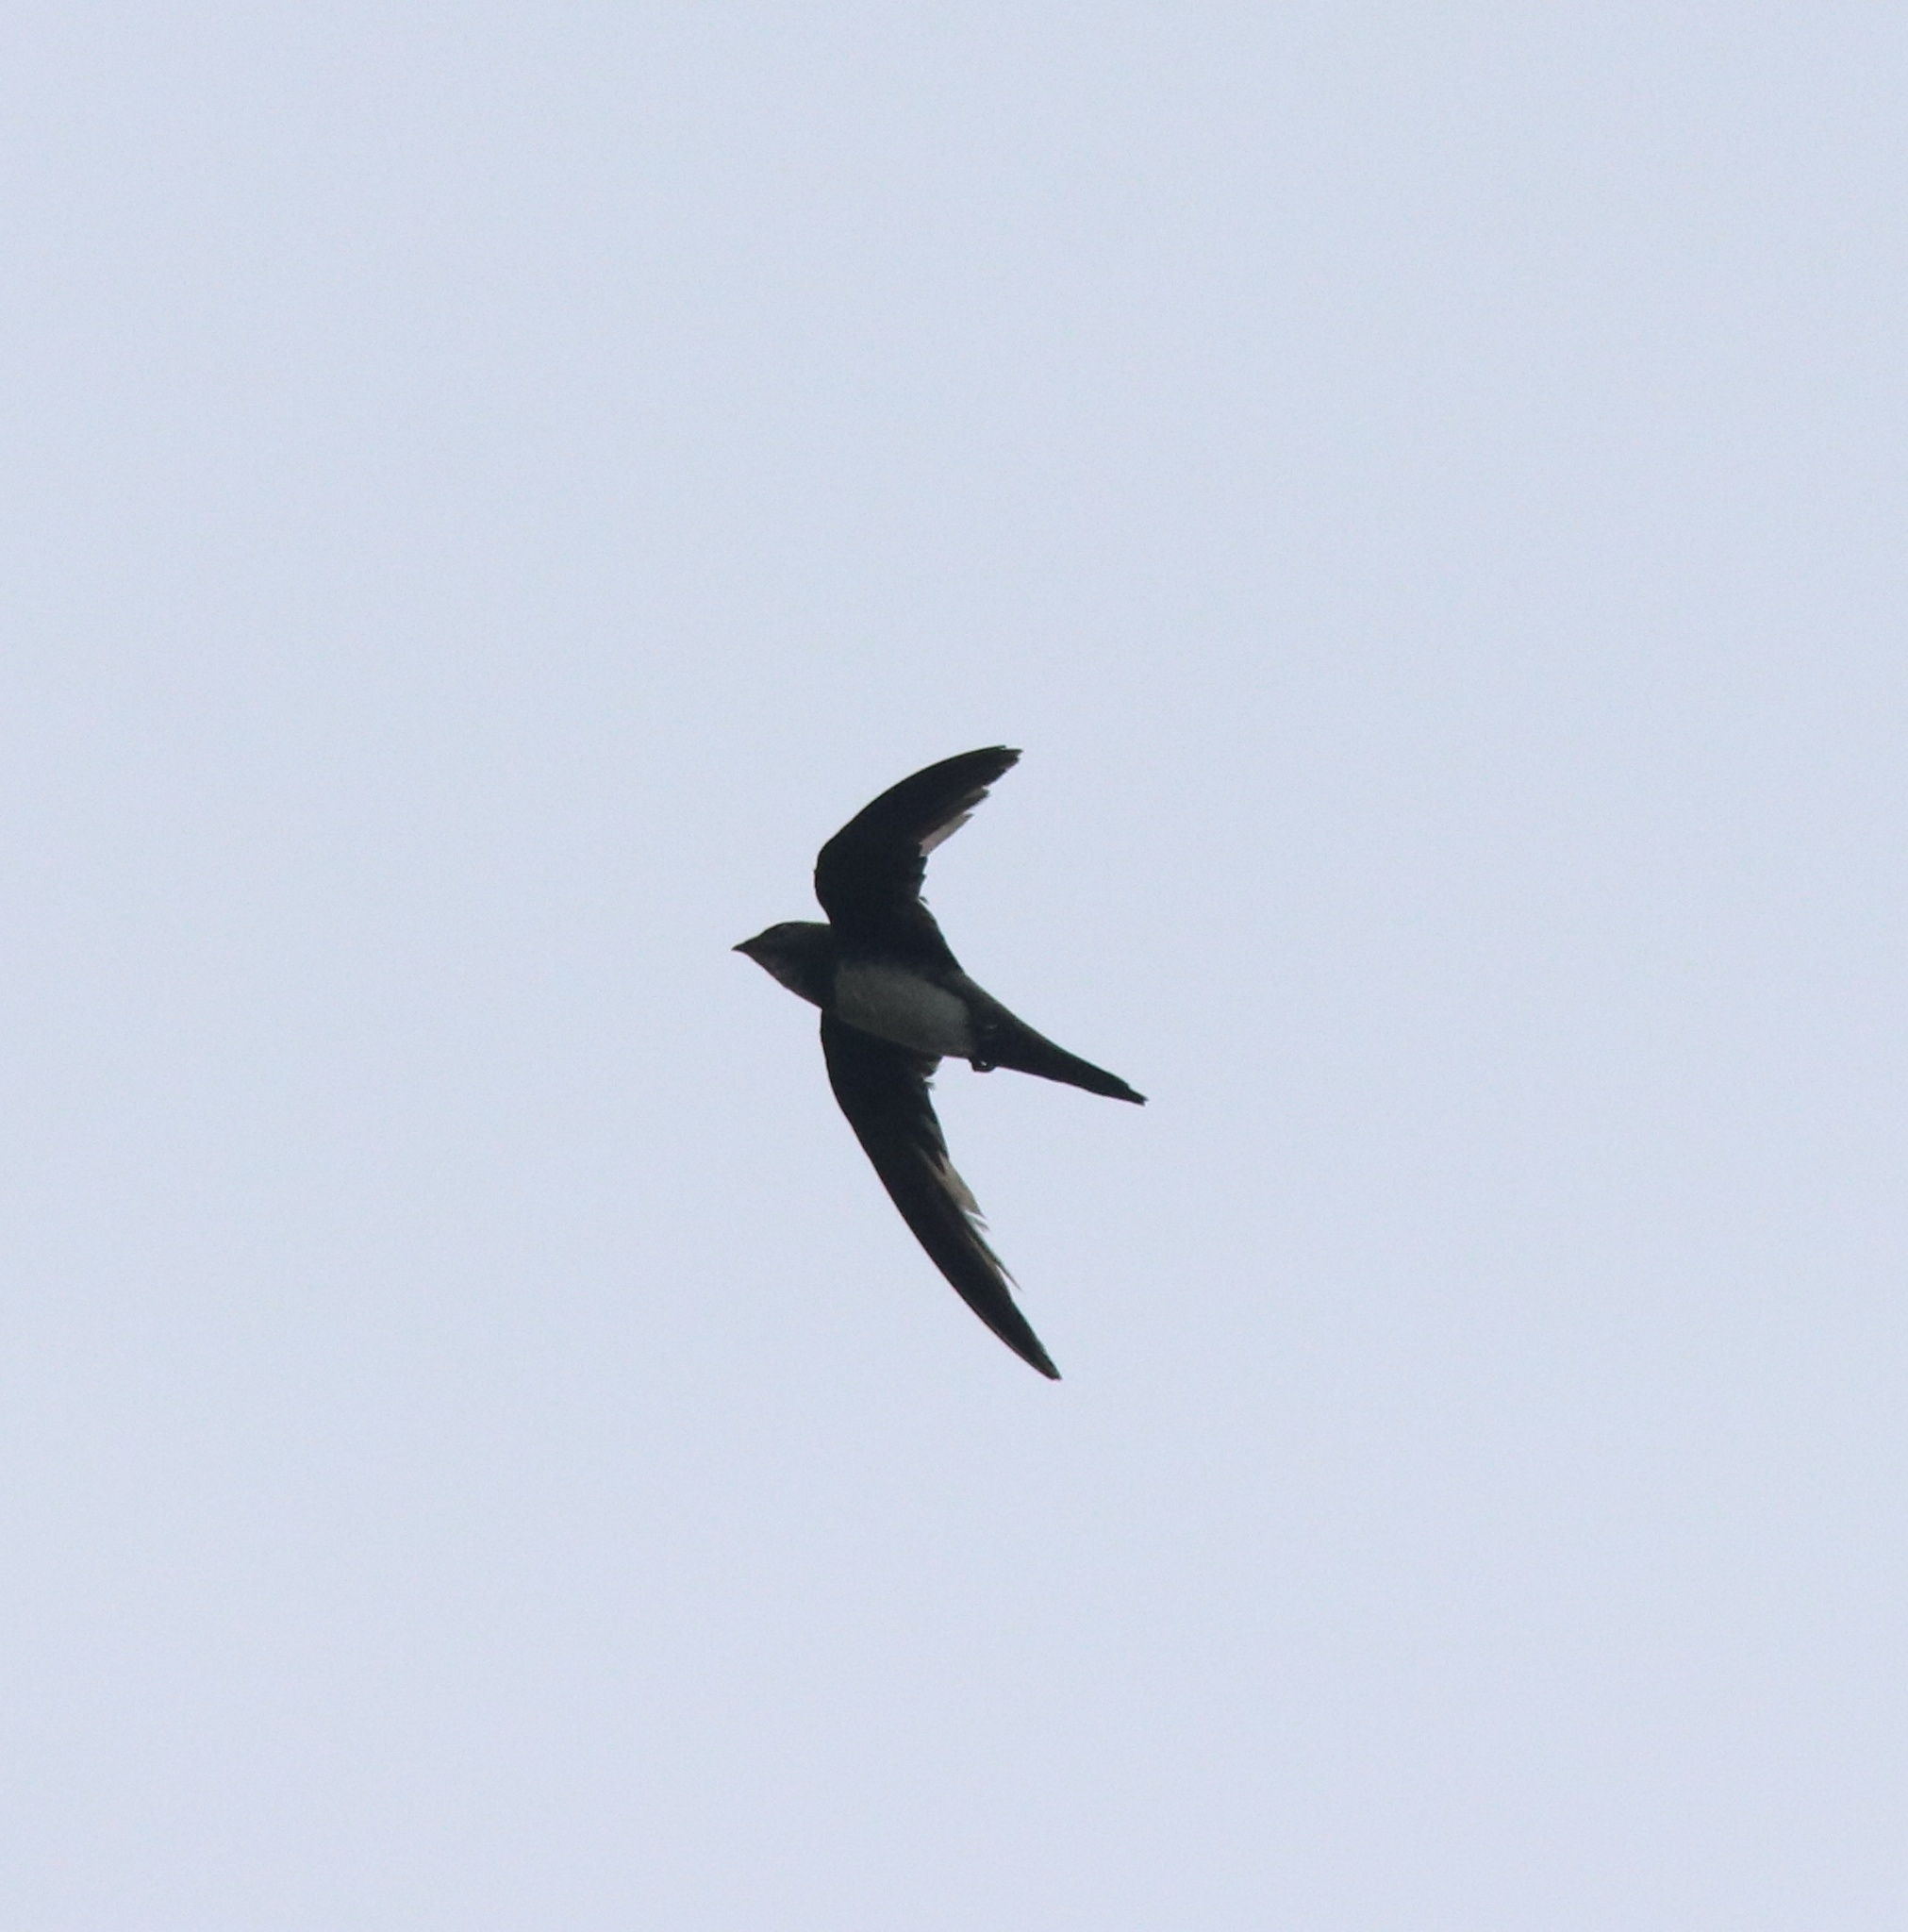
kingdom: Animalia
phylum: Chordata
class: Aves
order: Apodiformes
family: Apodidae
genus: Tachymarptis
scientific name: Tachymarptis melba
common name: Alpine swift
